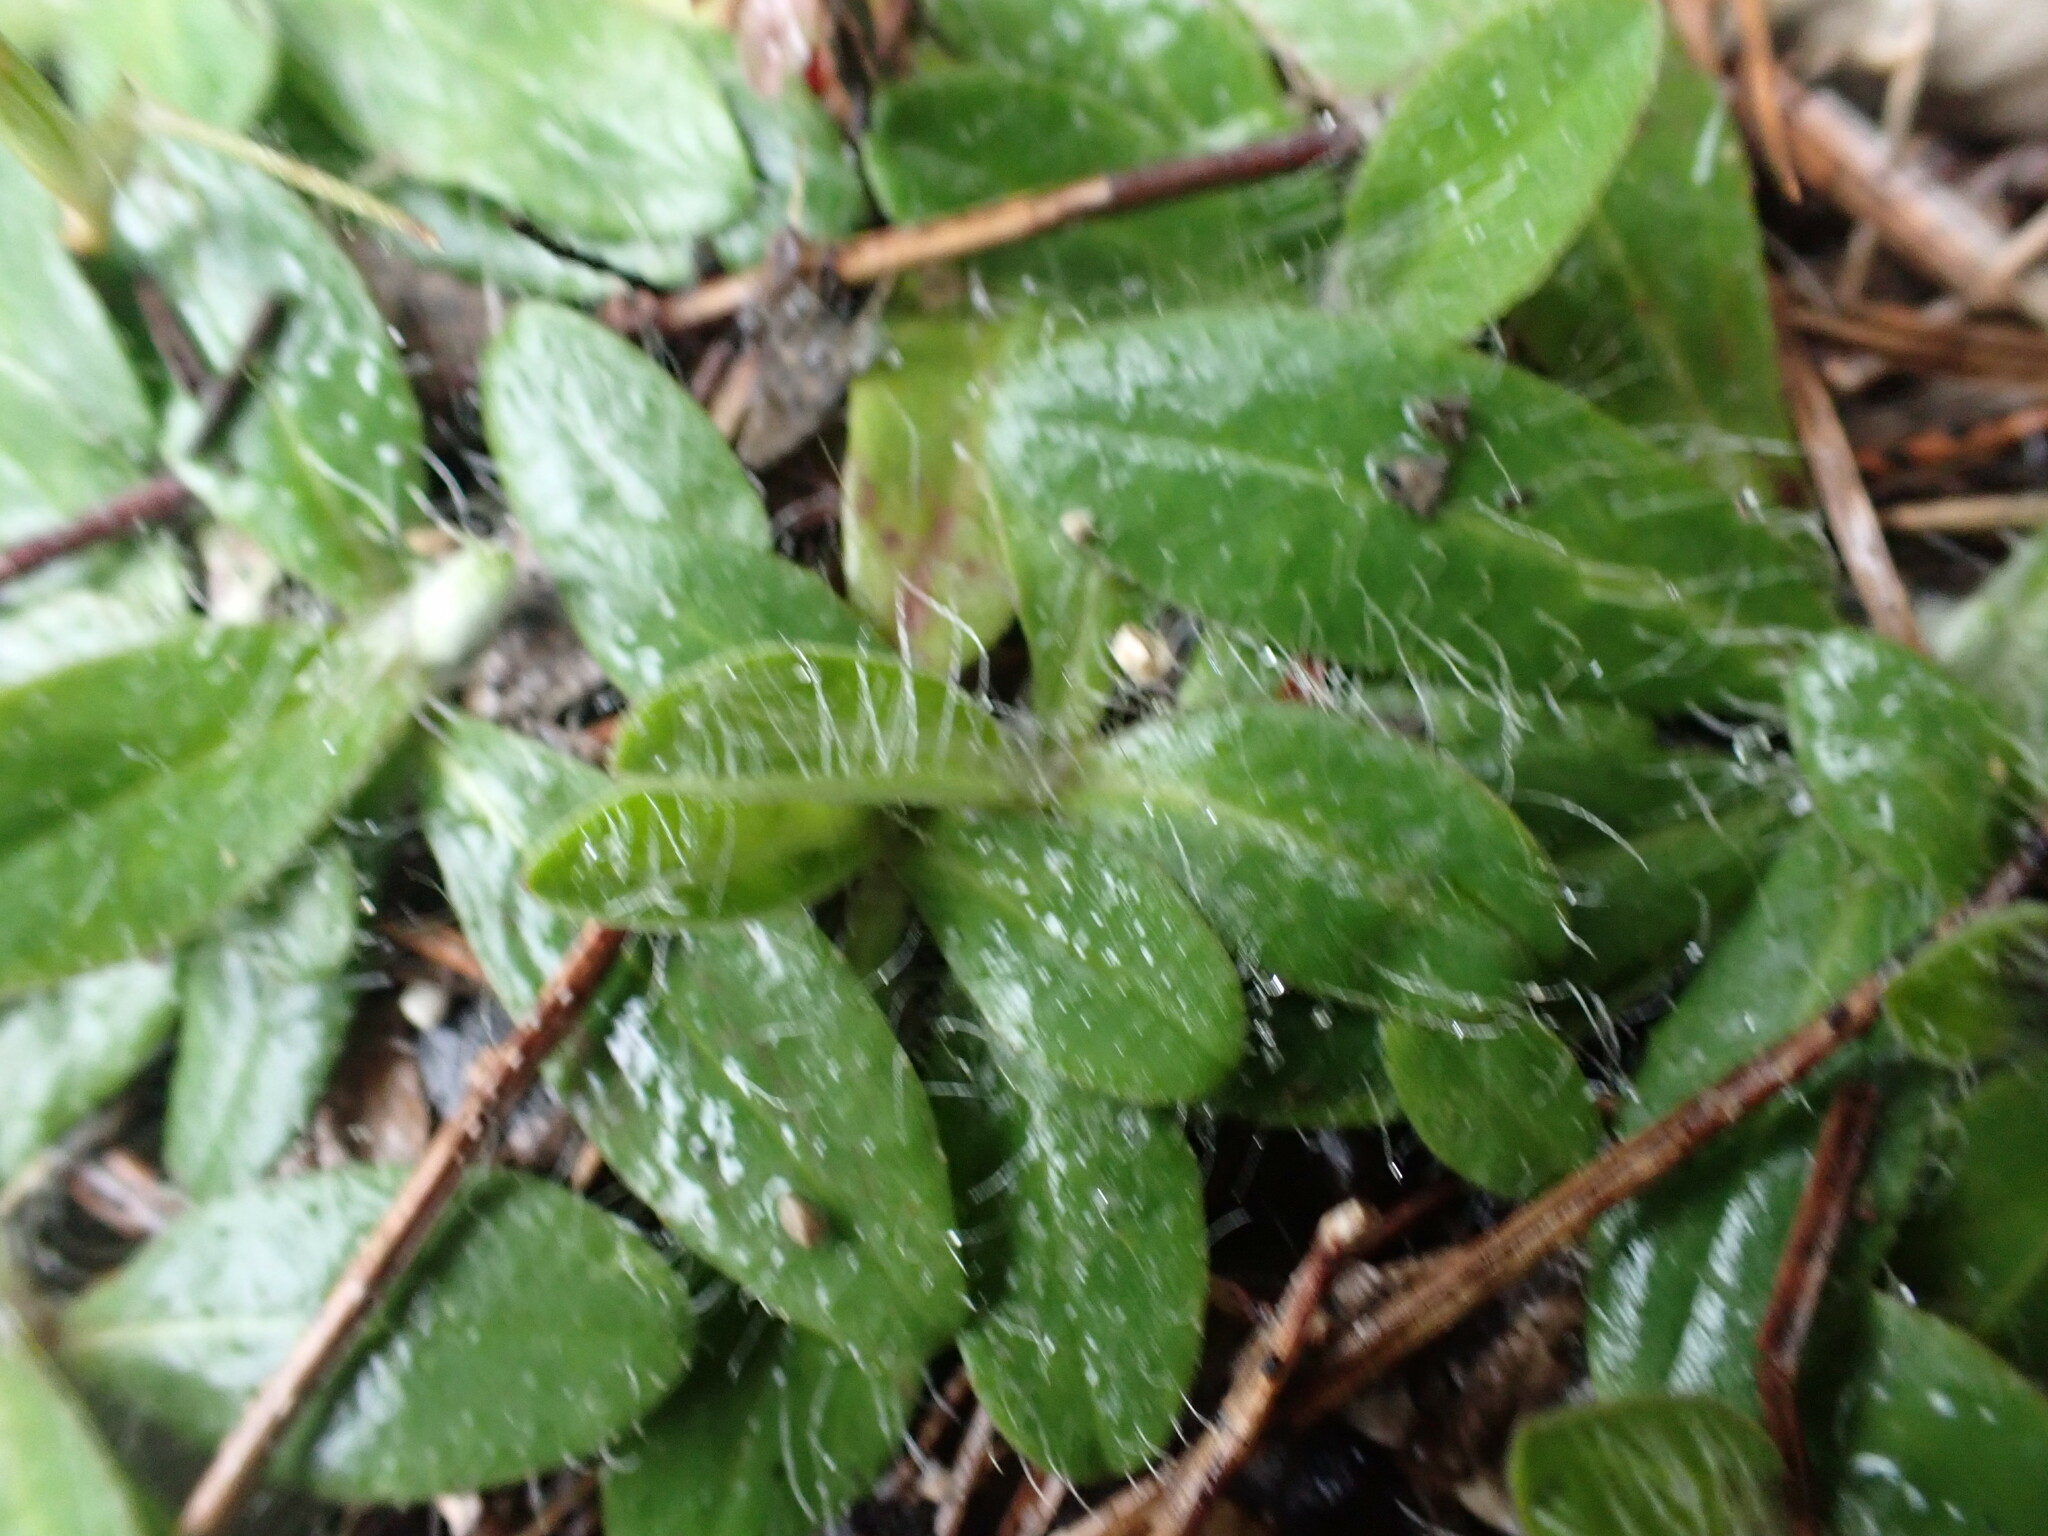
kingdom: Plantae
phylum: Tracheophyta
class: Magnoliopsida
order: Asterales
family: Asteraceae
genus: Pilosella
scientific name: Pilosella officinarum
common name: Mouse-ear hawkweed
